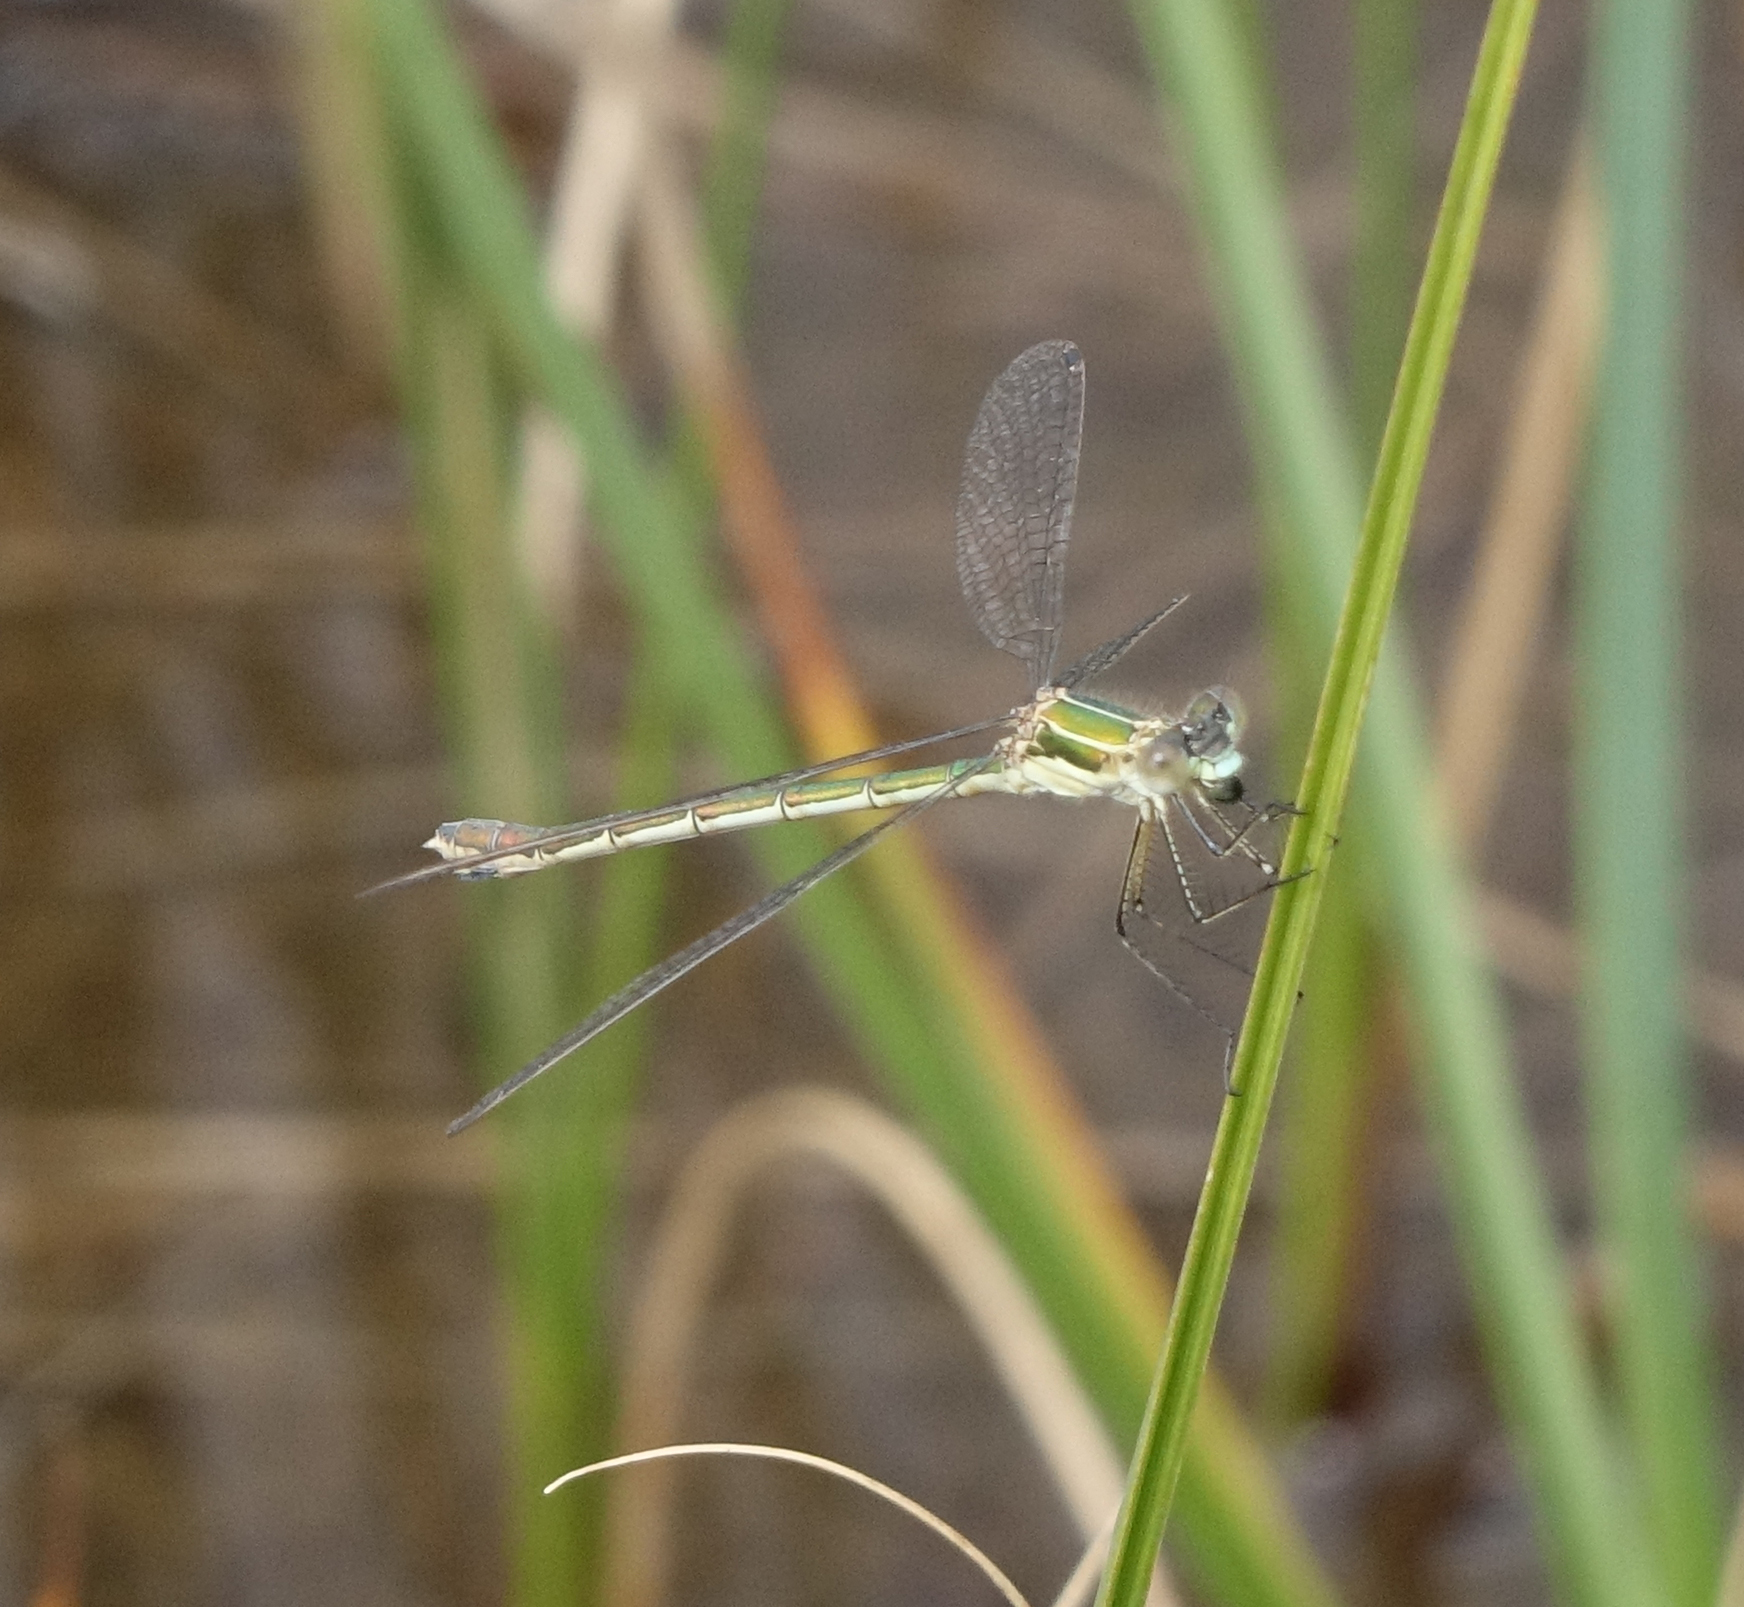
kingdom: Animalia
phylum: Arthropoda
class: Insecta
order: Odonata
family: Lestidae
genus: Lestes
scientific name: Lestes sponsa
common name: Common spreadwing
